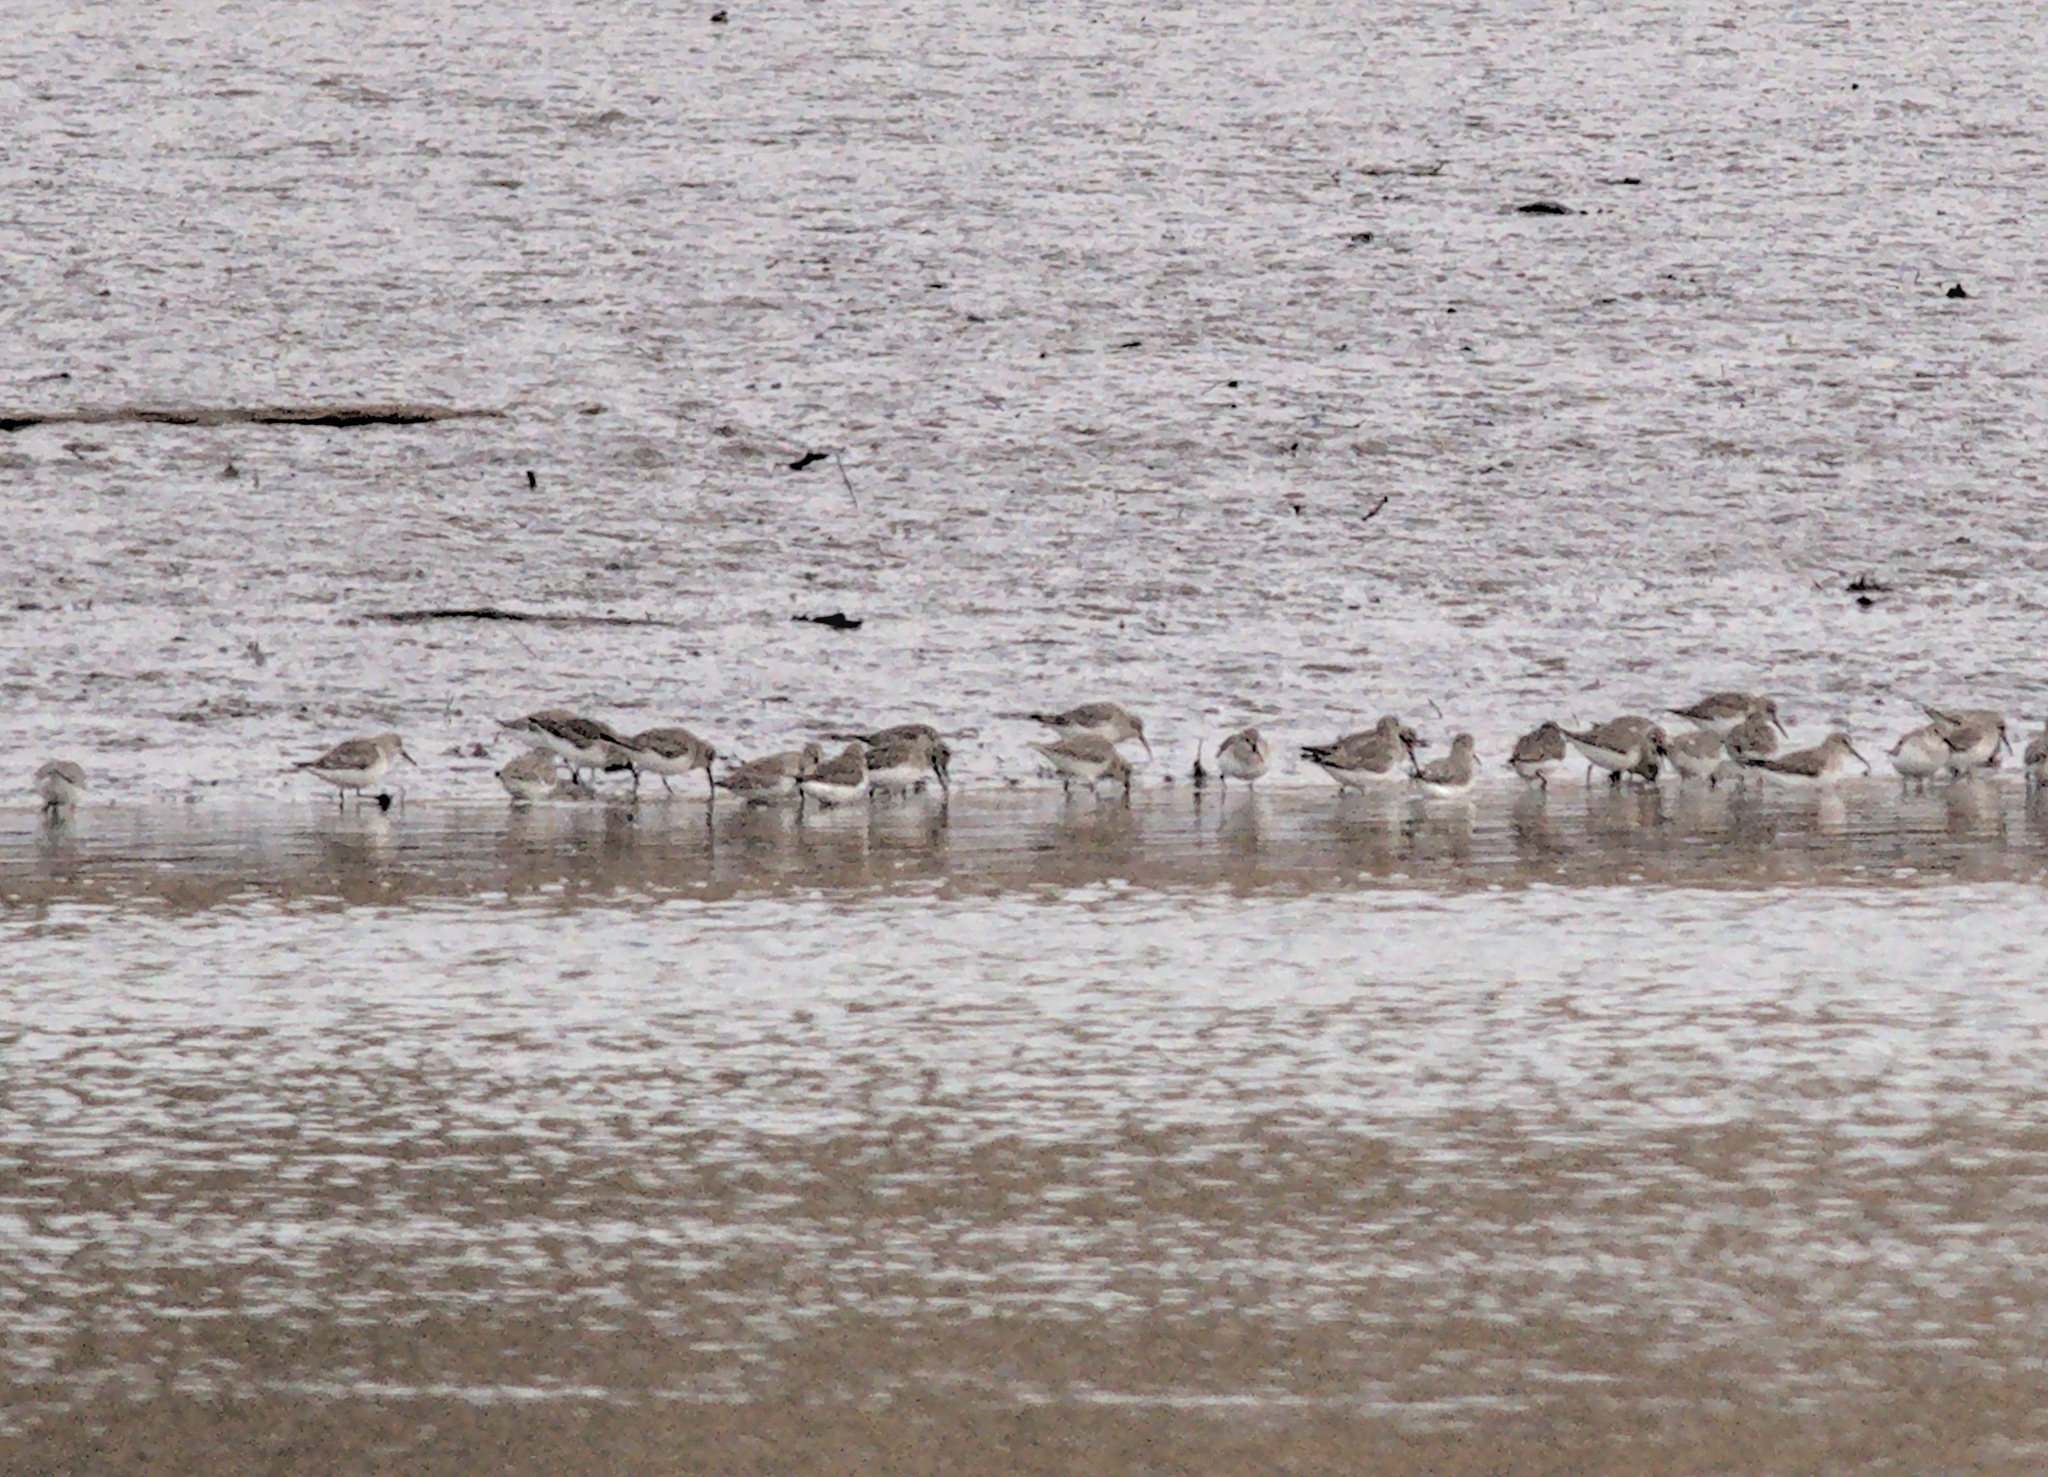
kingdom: Animalia
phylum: Chordata
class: Aves
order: Charadriiformes
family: Scolopacidae
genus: Calidris
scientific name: Calidris alpina
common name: Dunlin
